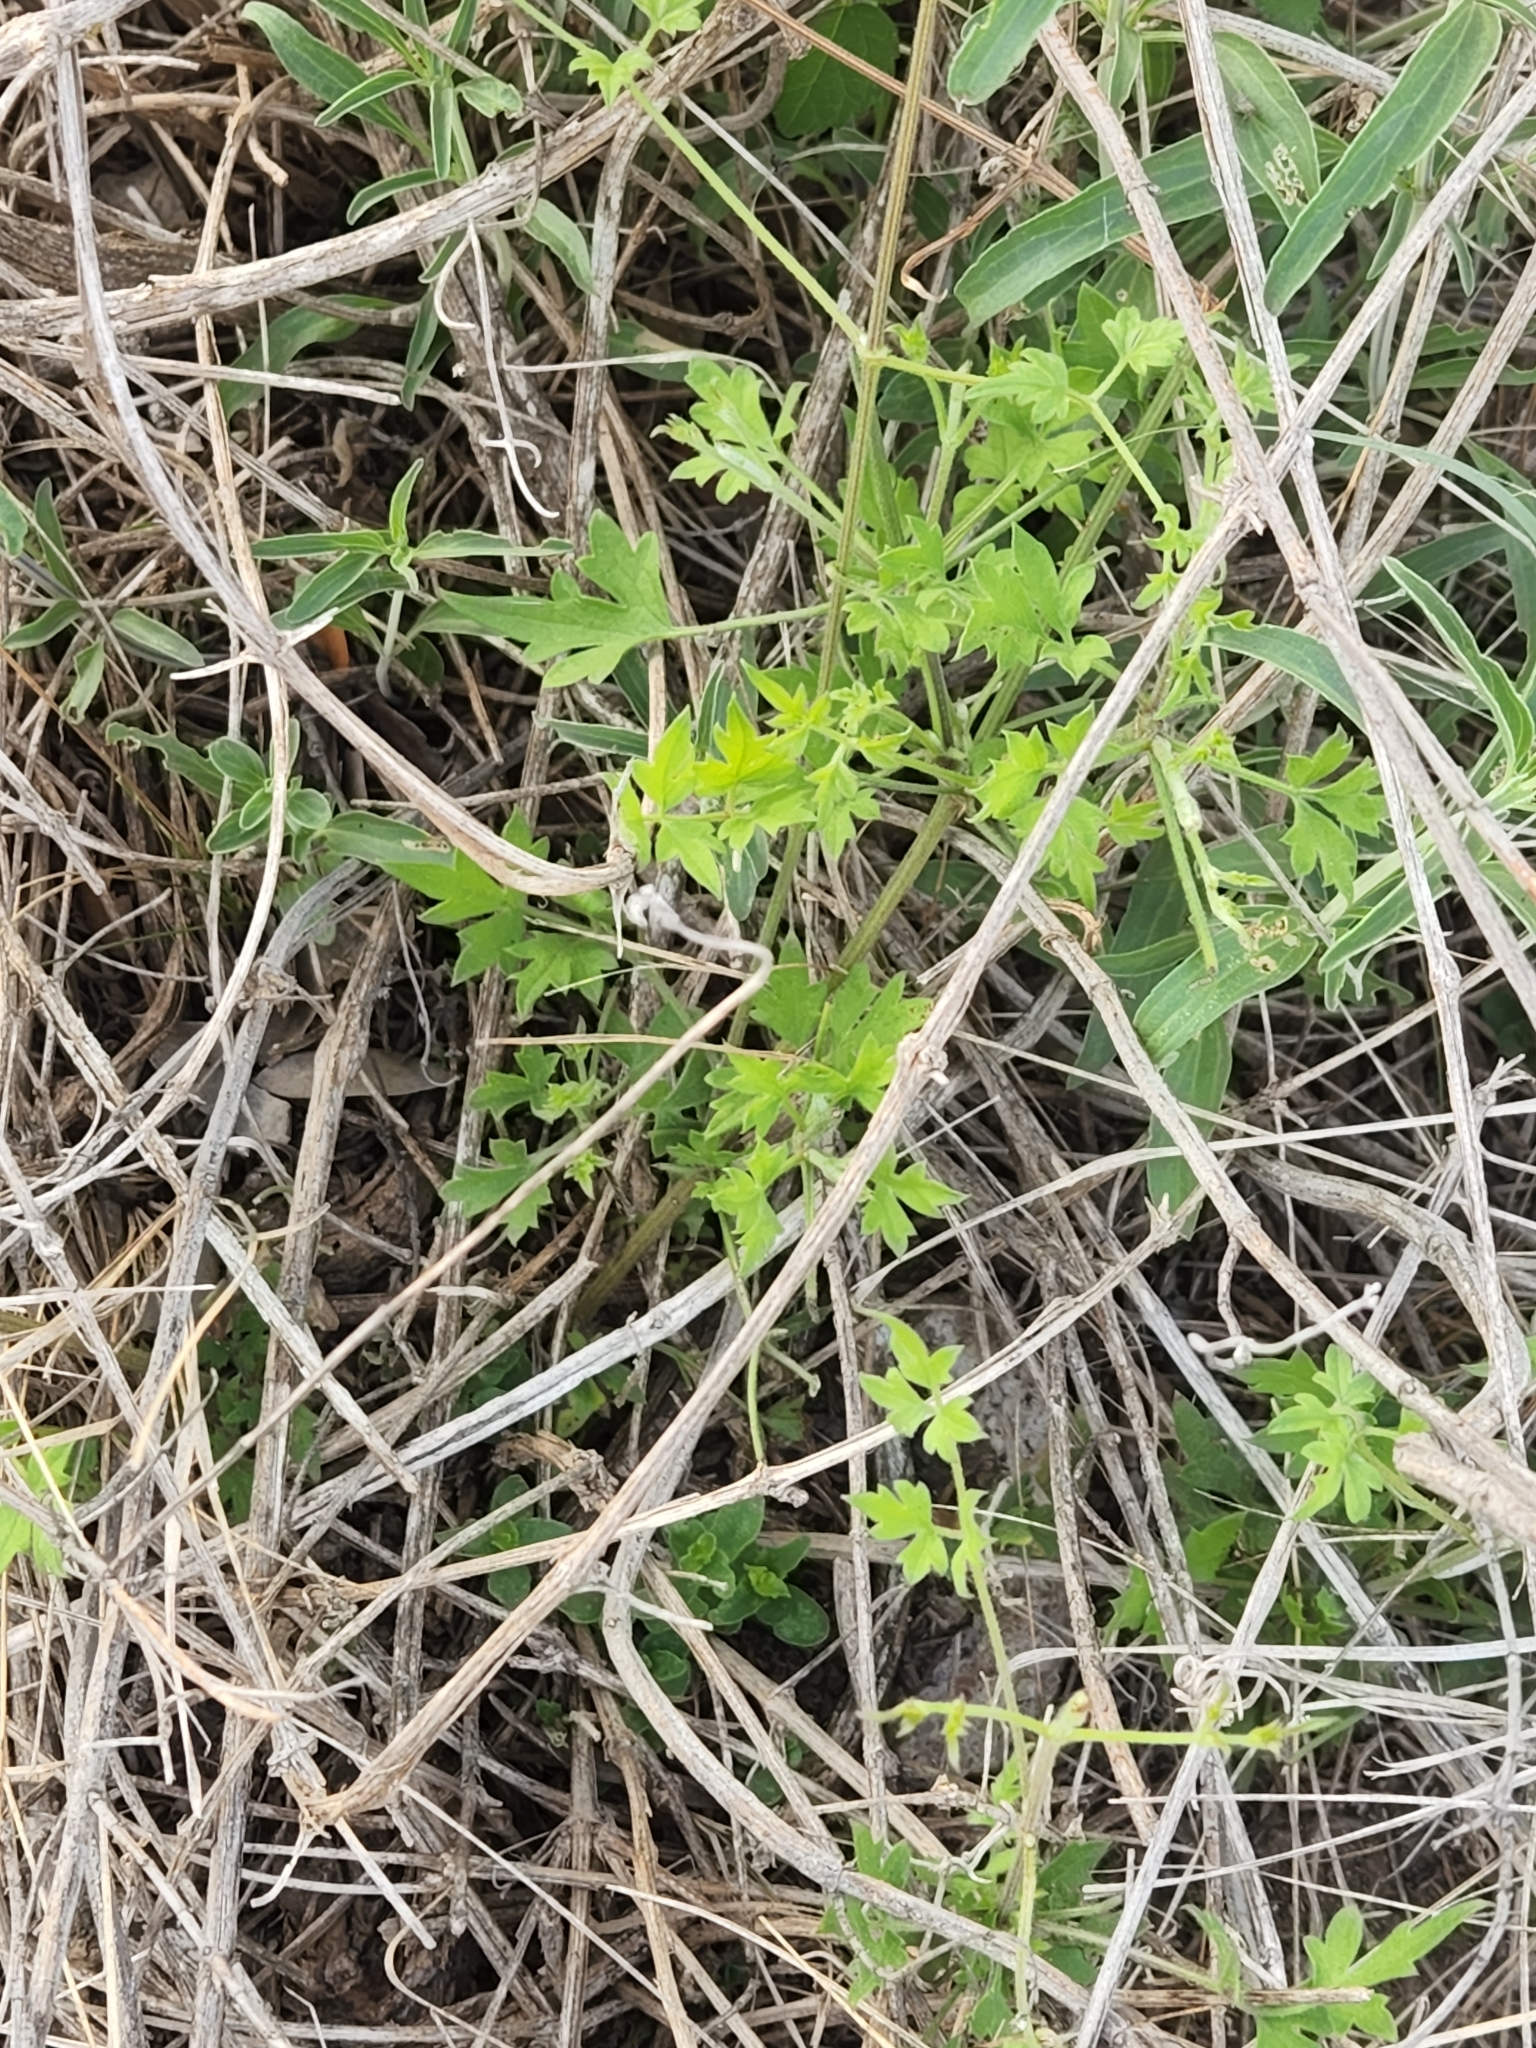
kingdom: Plantae
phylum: Tracheophyta
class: Magnoliopsida
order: Ranunculales
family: Ranunculaceae
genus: Clematis
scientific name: Clematis drummondii
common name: Texas virgin's bower
